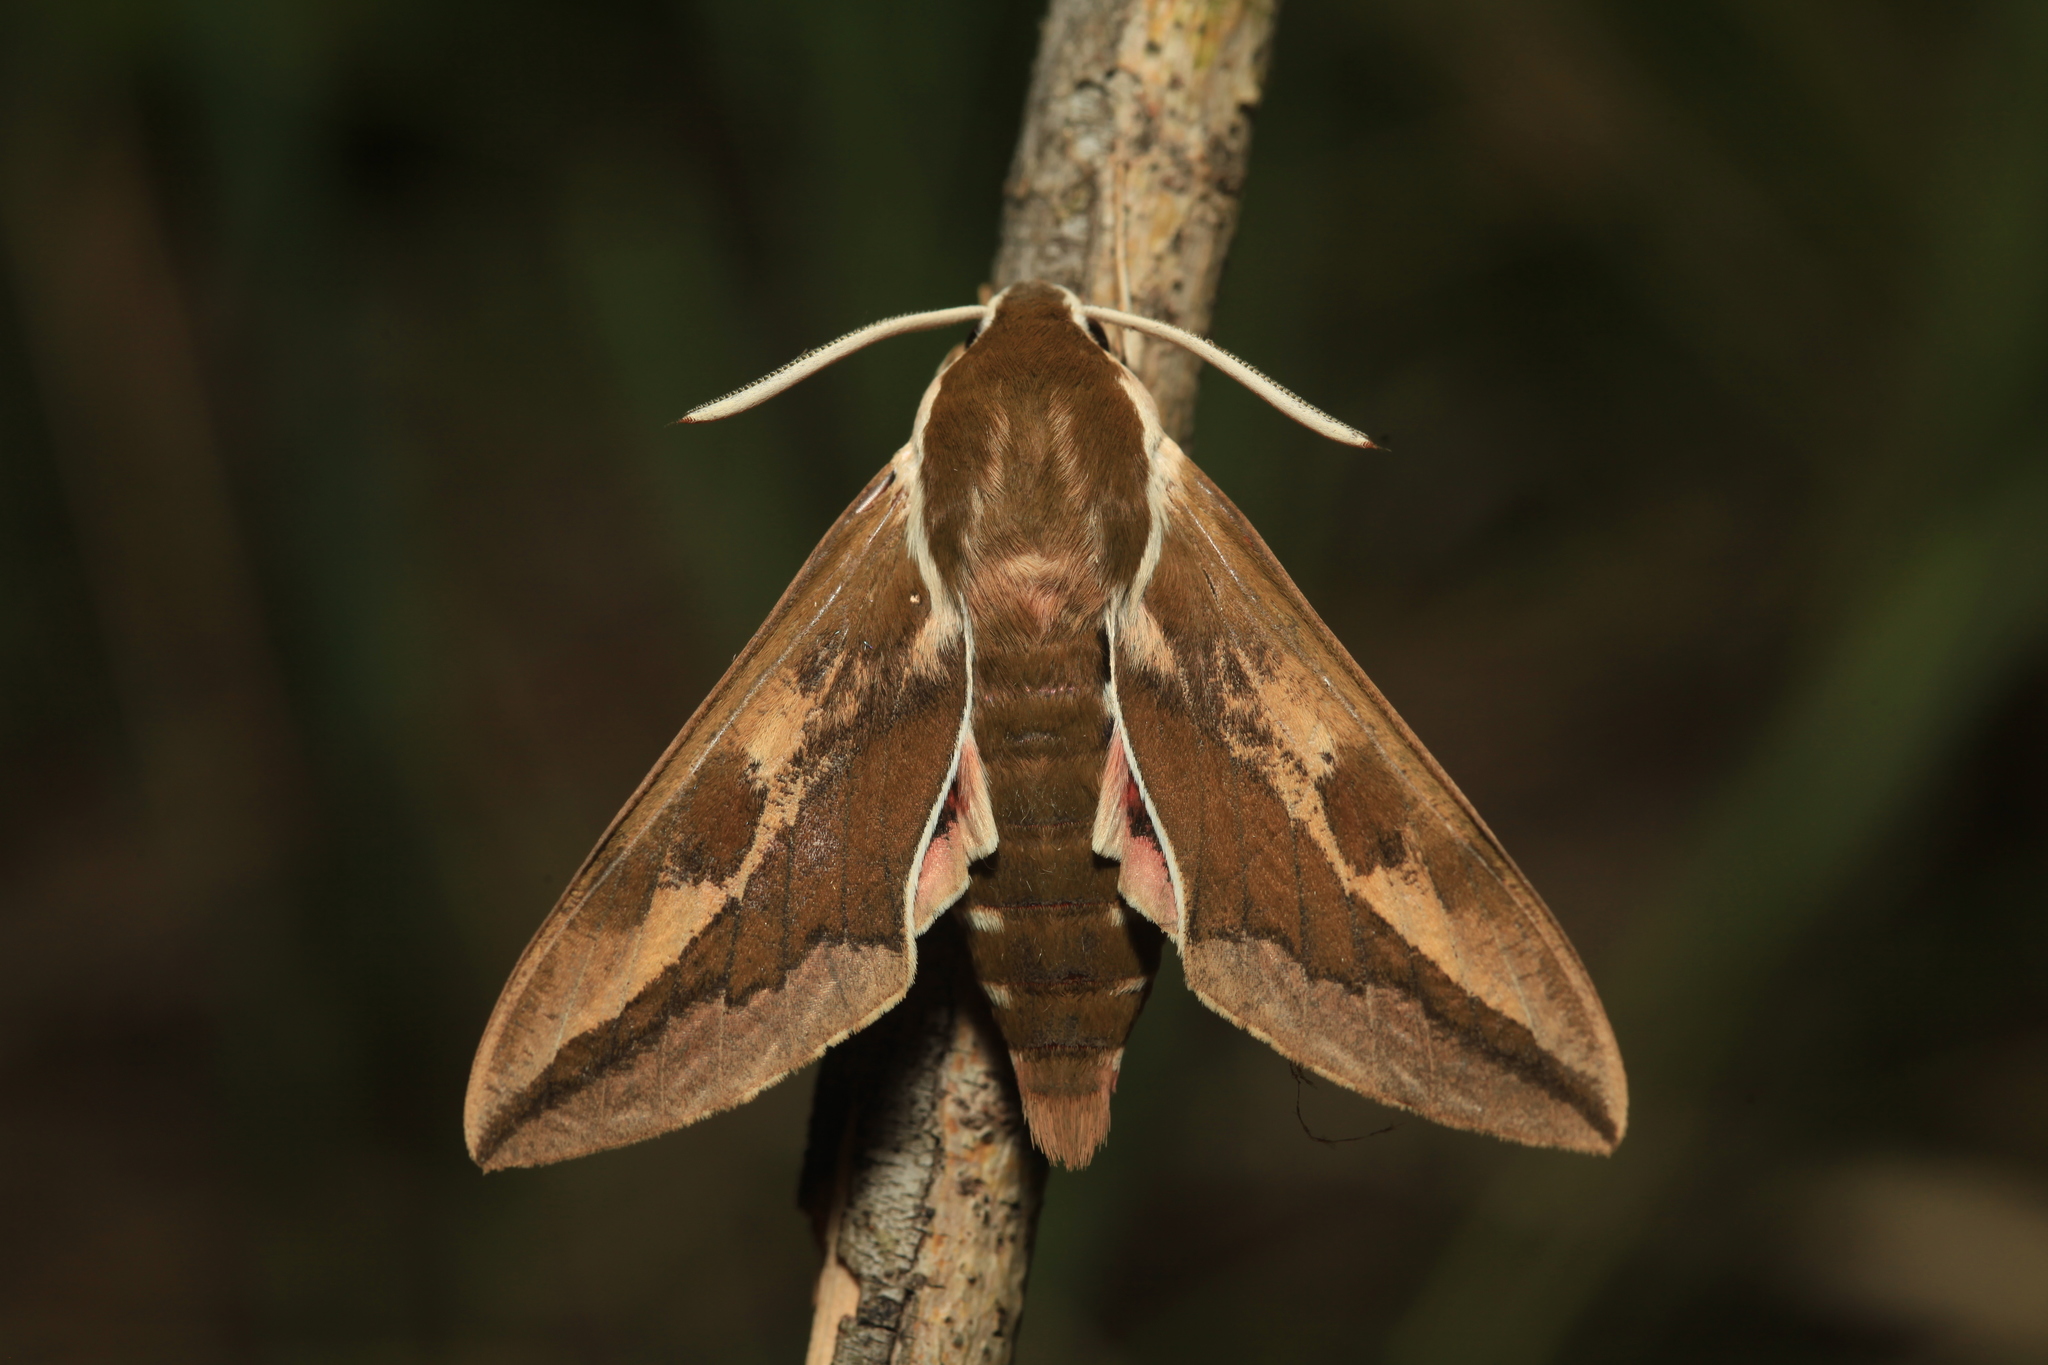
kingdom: Animalia
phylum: Arthropoda
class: Insecta
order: Lepidoptera
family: Sphingidae
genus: Hyles
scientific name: Hyles euphorbiae
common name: Spurge hawk-moth
